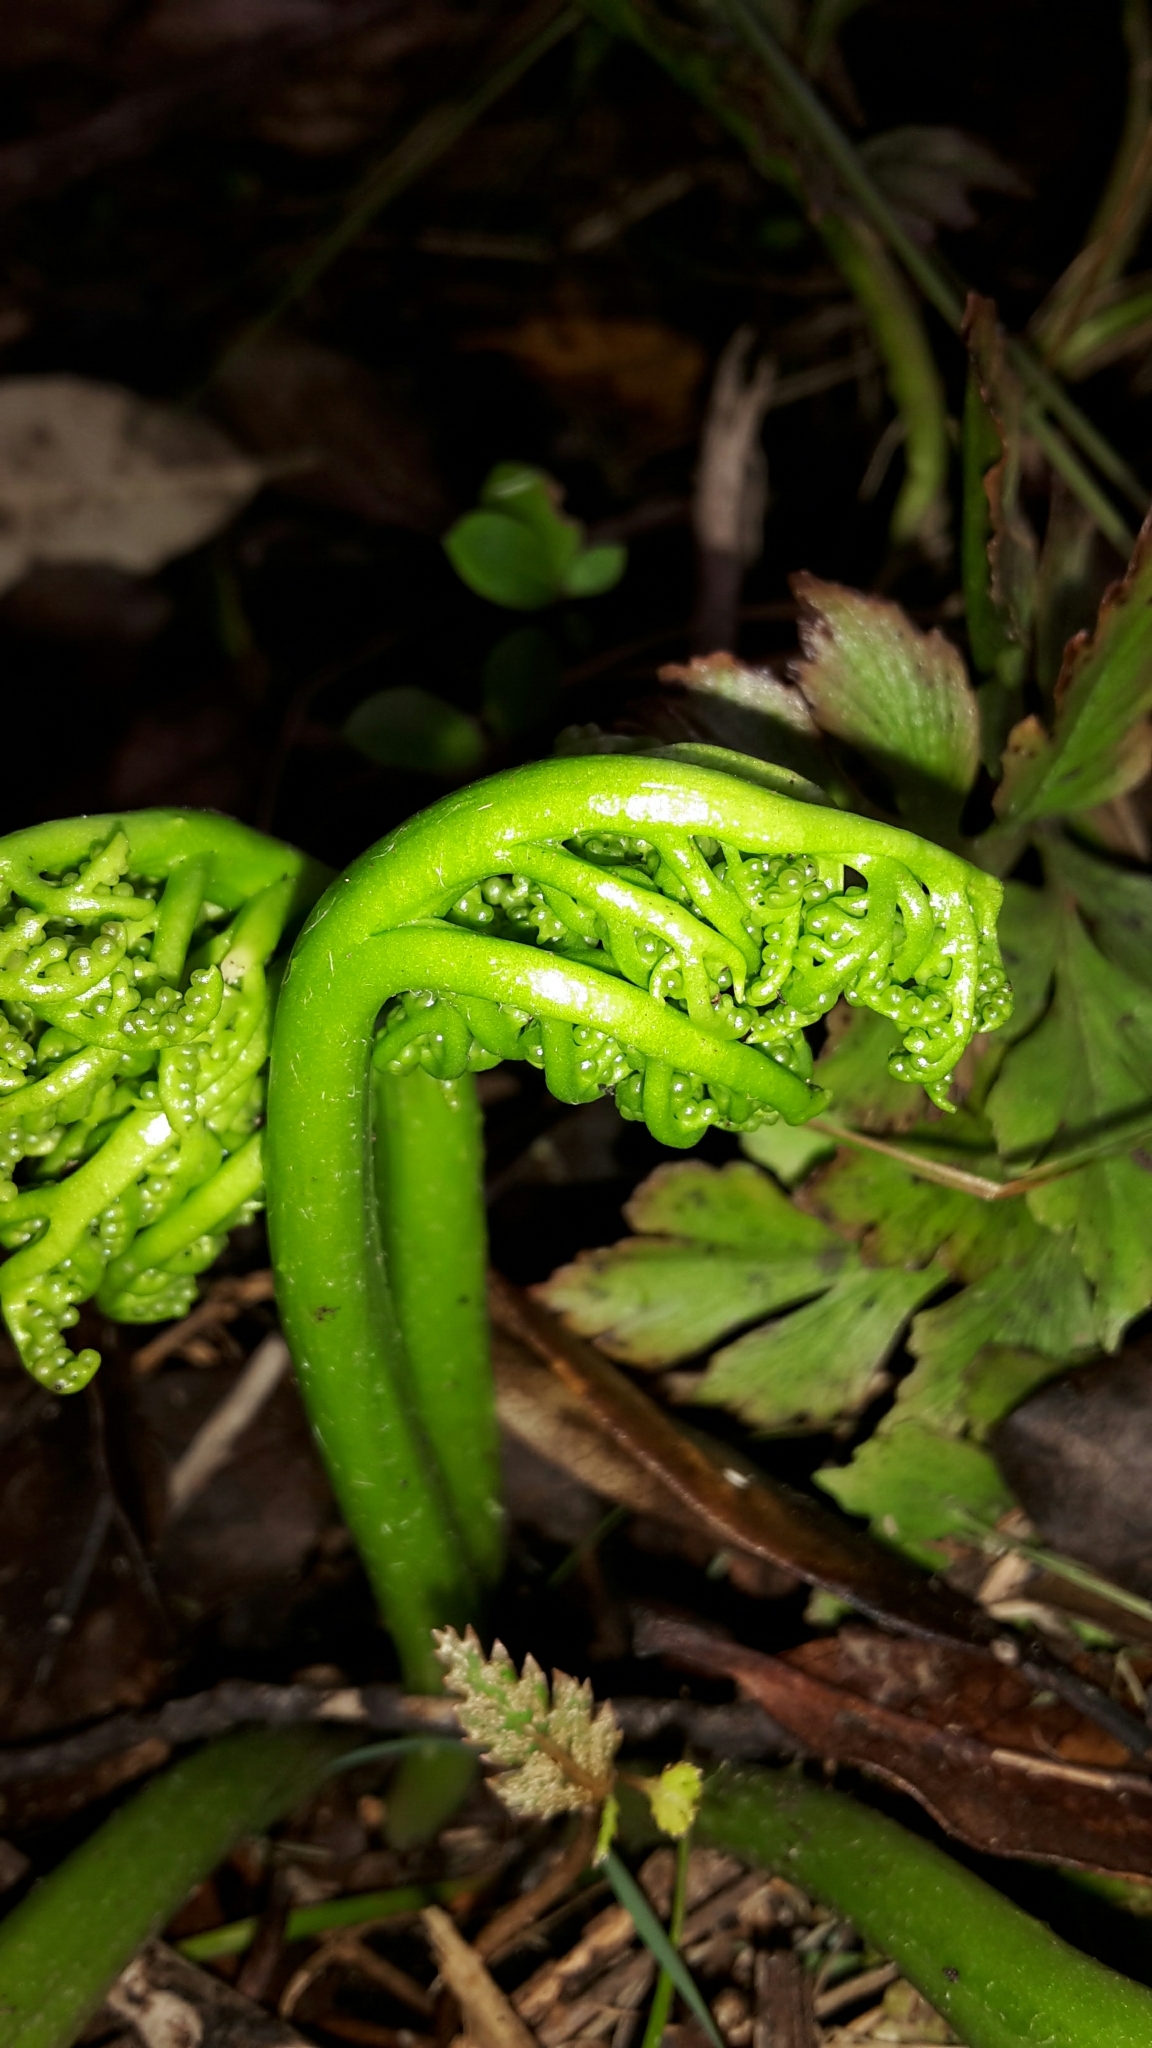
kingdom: Plantae
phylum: Tracheophyta
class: Polypodiopsida
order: Ophioglossales
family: Ophioglossaceae
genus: Sceptridium
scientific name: Sceptridium australe
